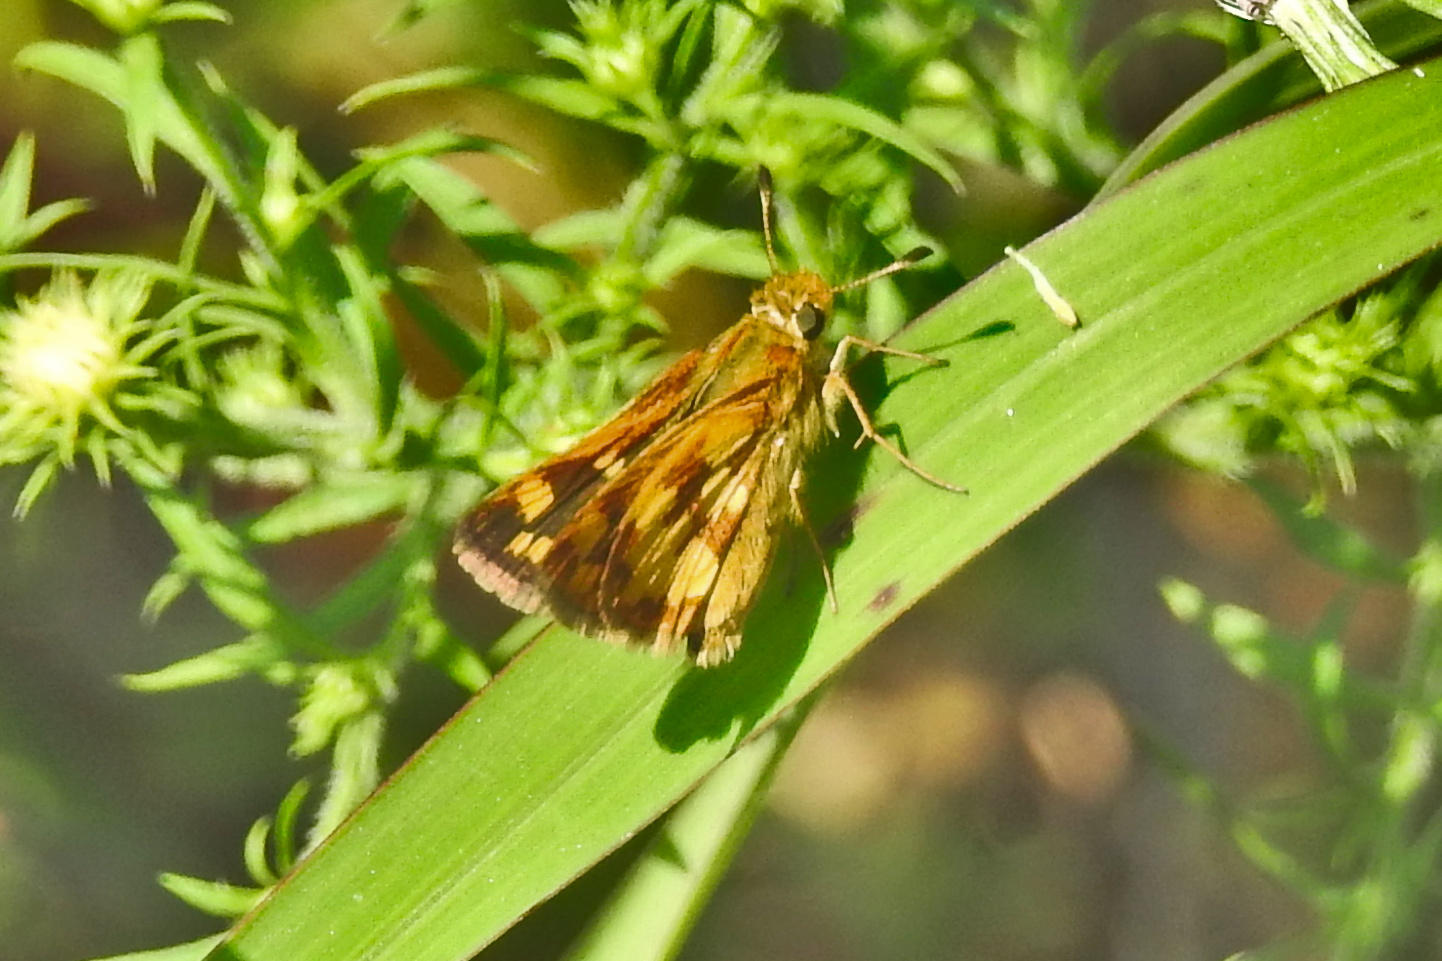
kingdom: Animalia
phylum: Arthropoda
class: Insecta
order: Lepidoptera
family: Hesperiidae
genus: Polites
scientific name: Polites coras
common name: Peck's skipper
